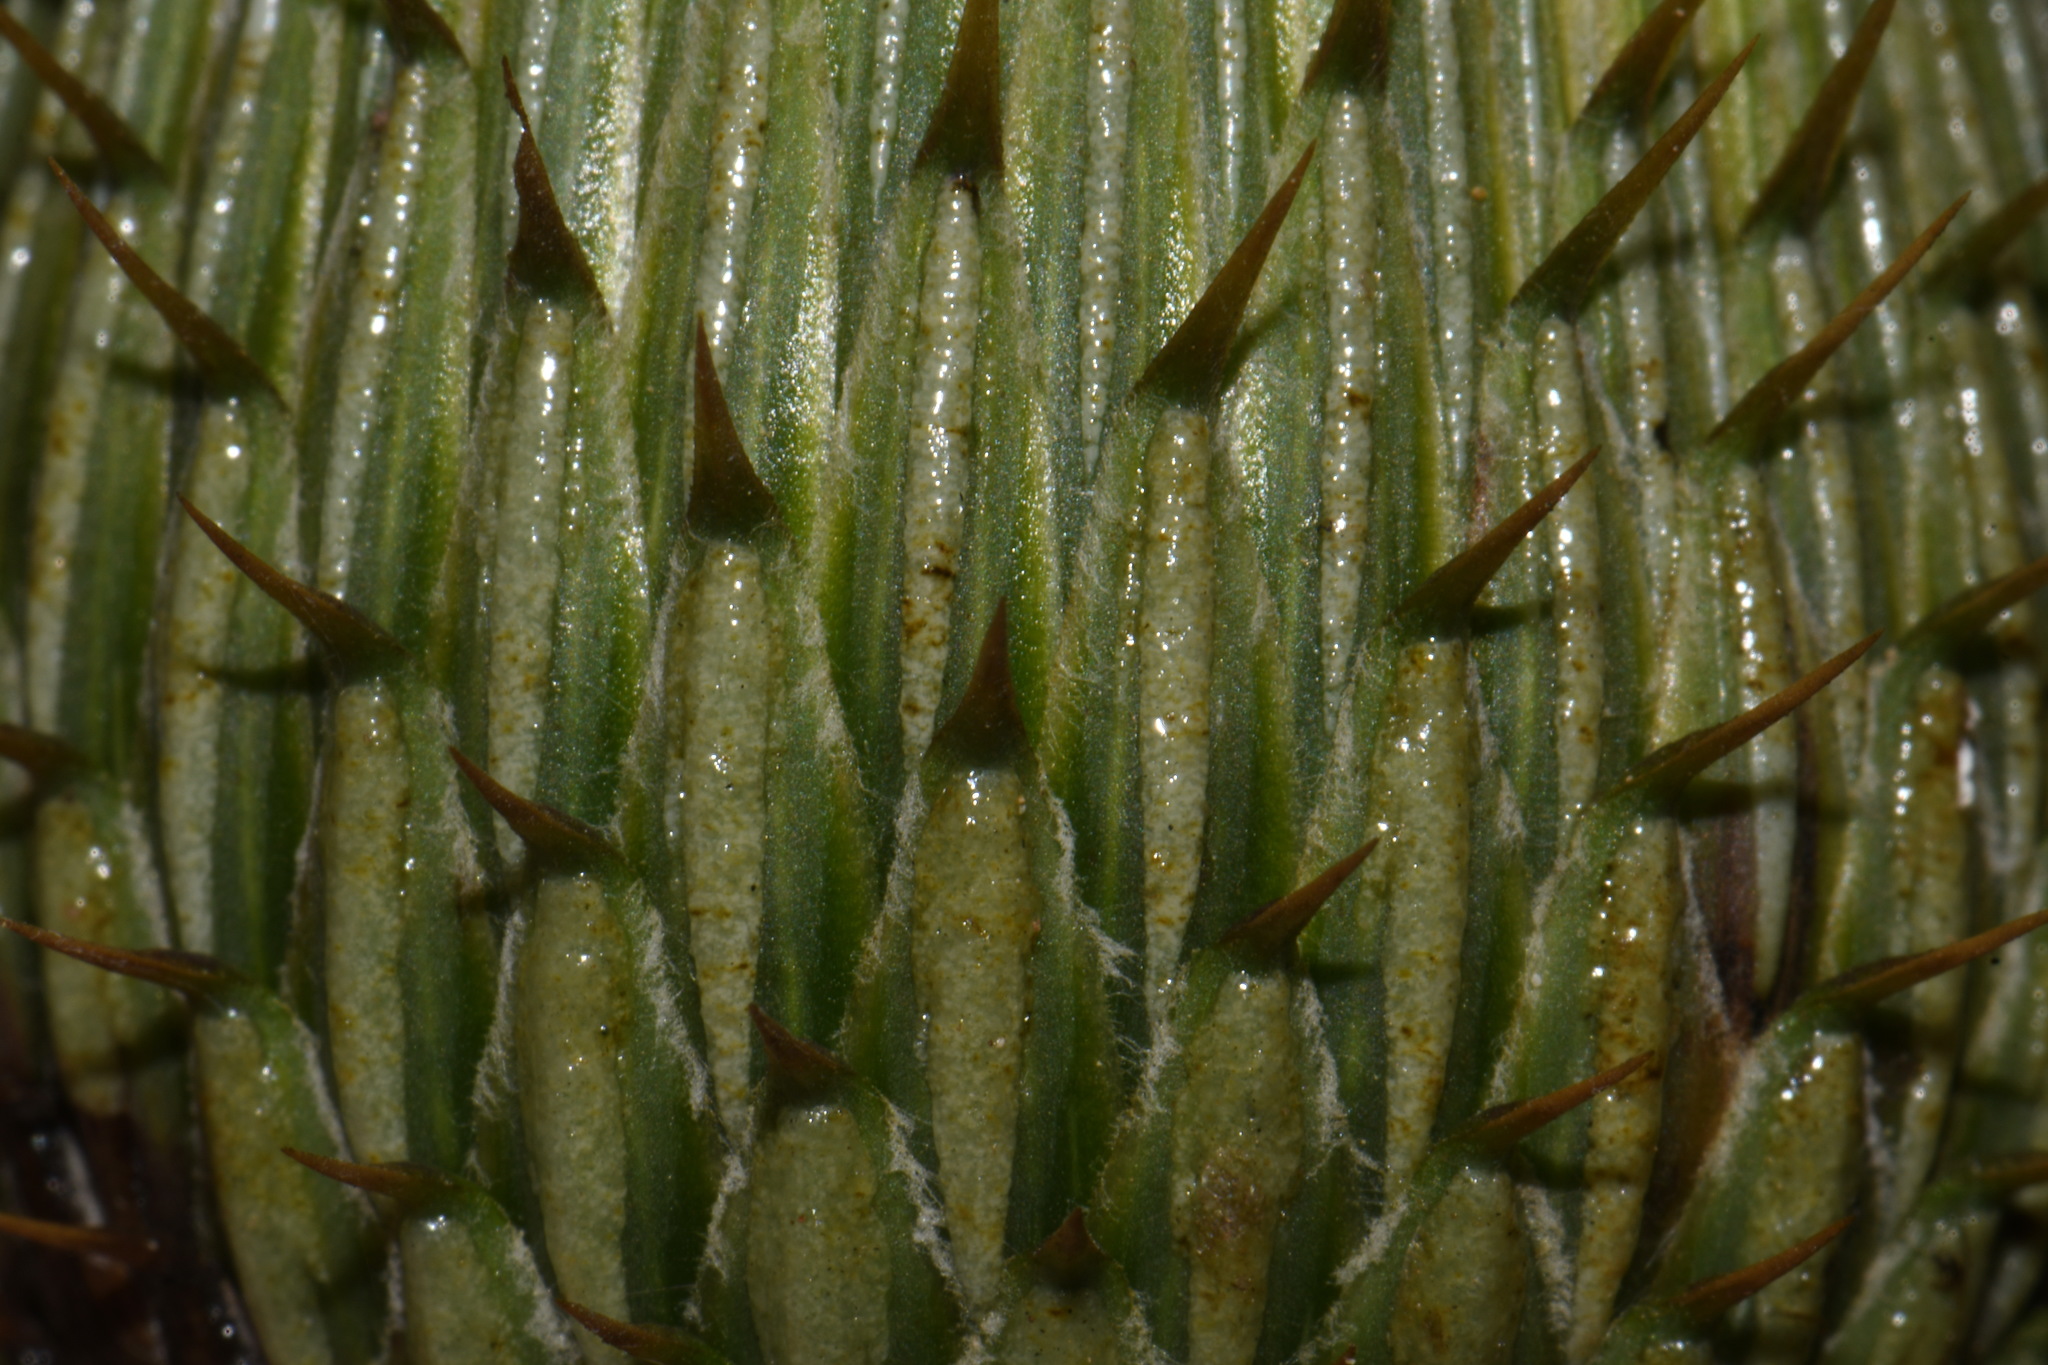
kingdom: Plantae
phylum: Tracheophyta
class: Magnoliopsida
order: Asterales
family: Asteraceae
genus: Cirsium
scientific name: Cirsium undulatum
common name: Pasture thistle
